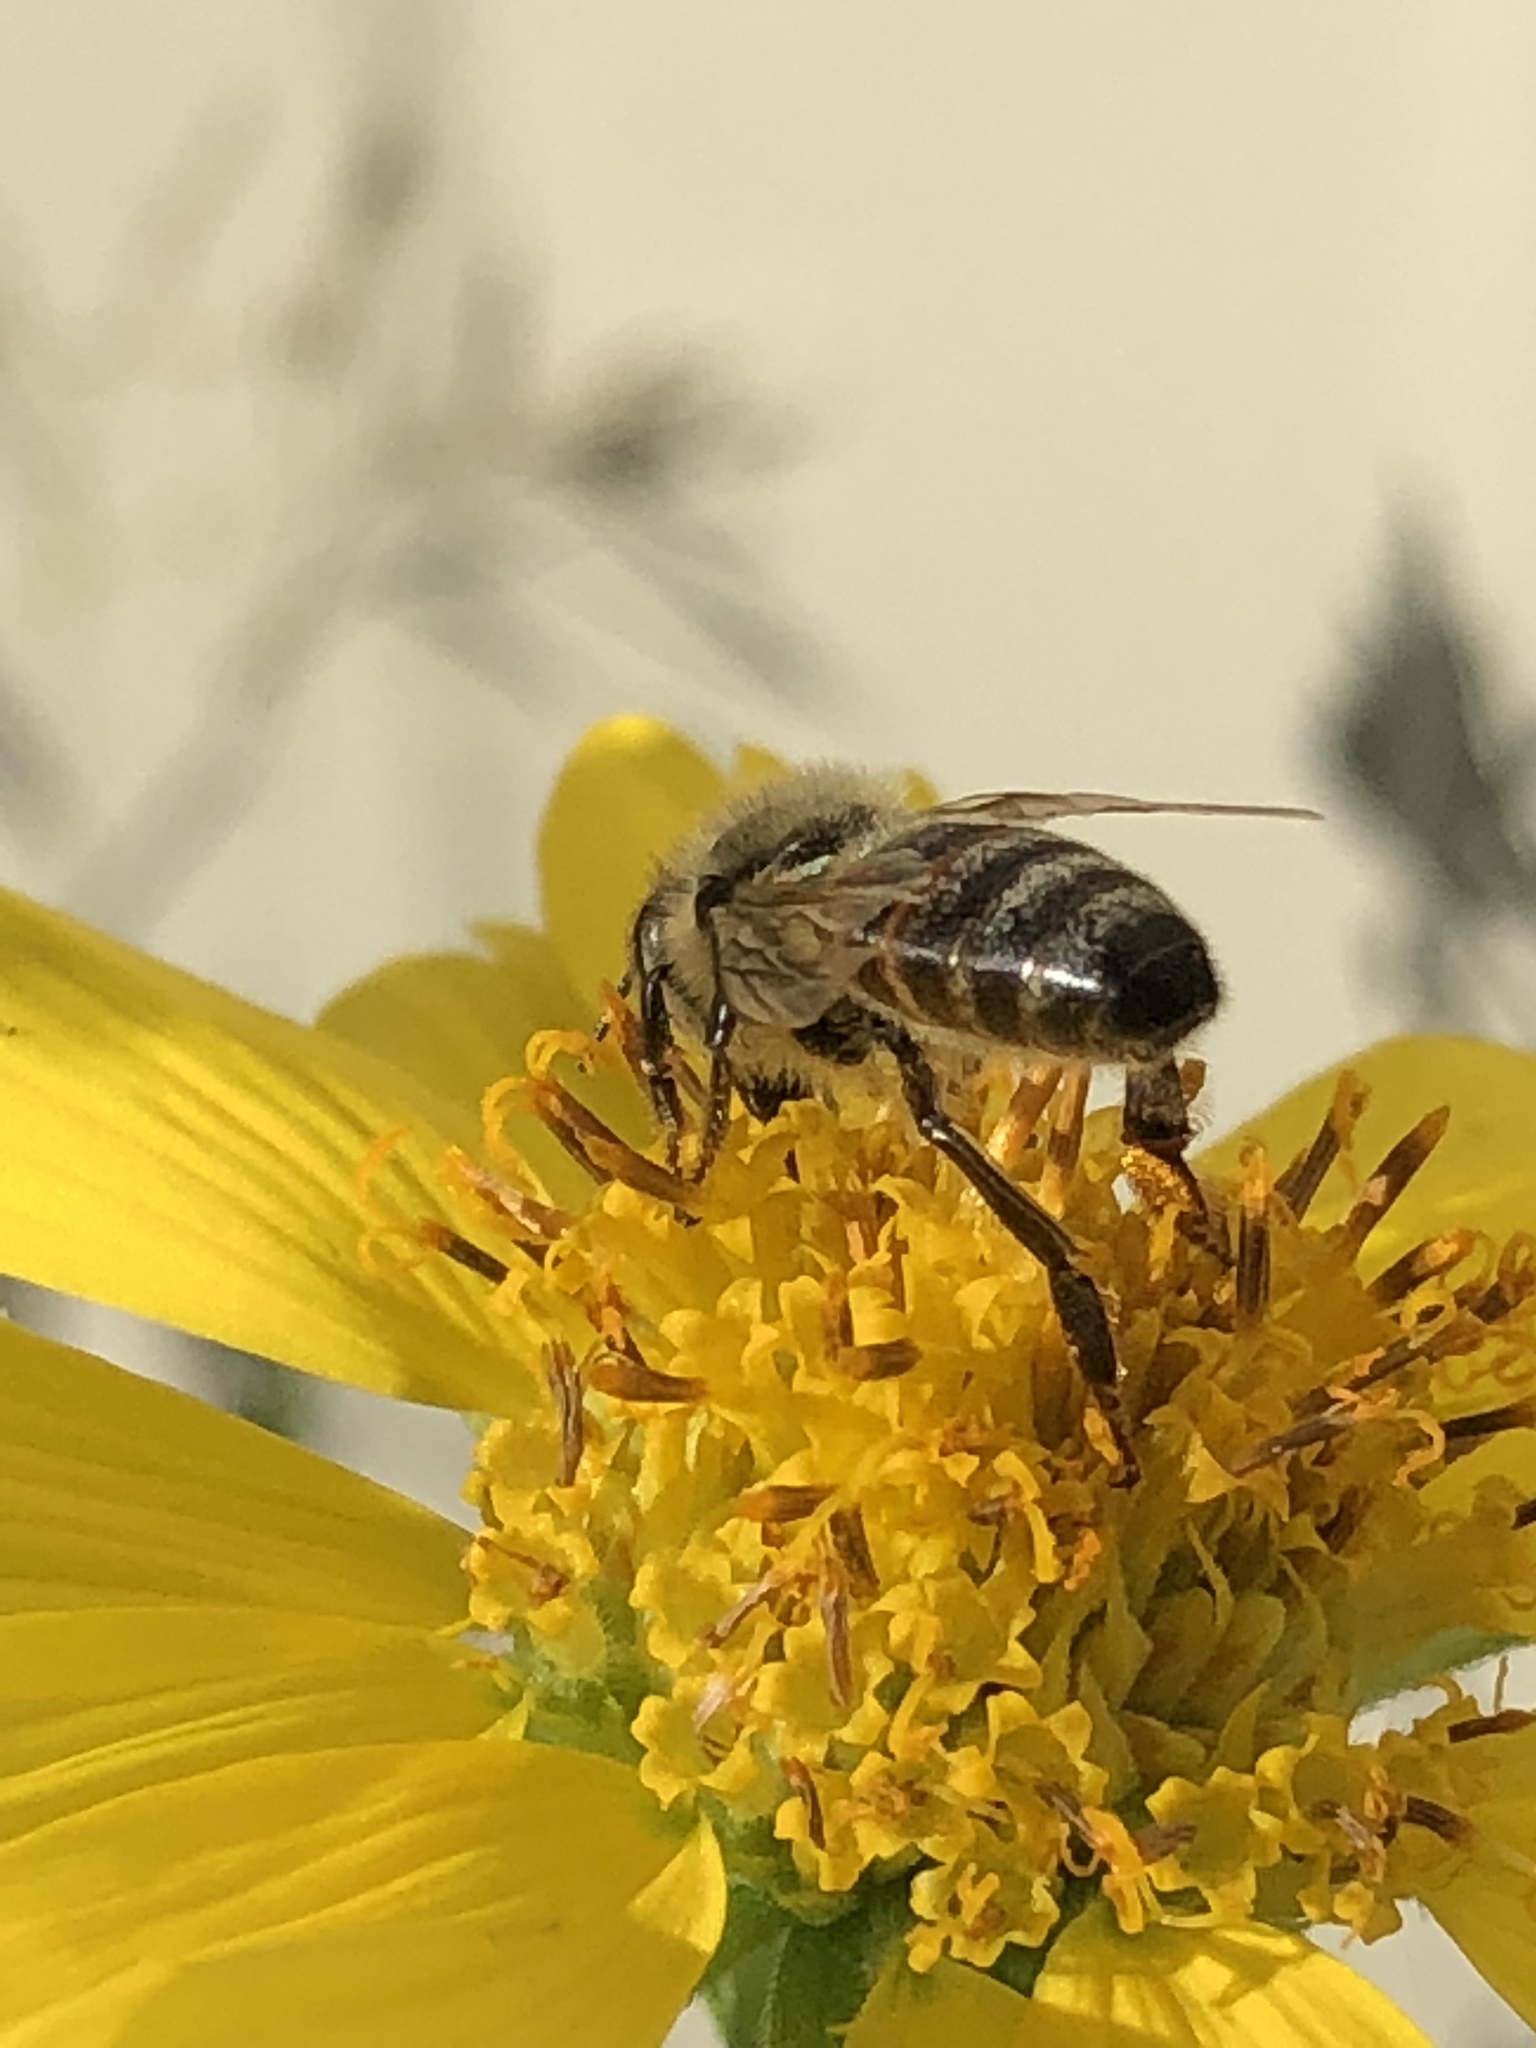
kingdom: Animalia
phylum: Arthropoda
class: Insecta
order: Hymenoptera
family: Apidae
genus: Apis
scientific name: Apis mellifera
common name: Honey bee
